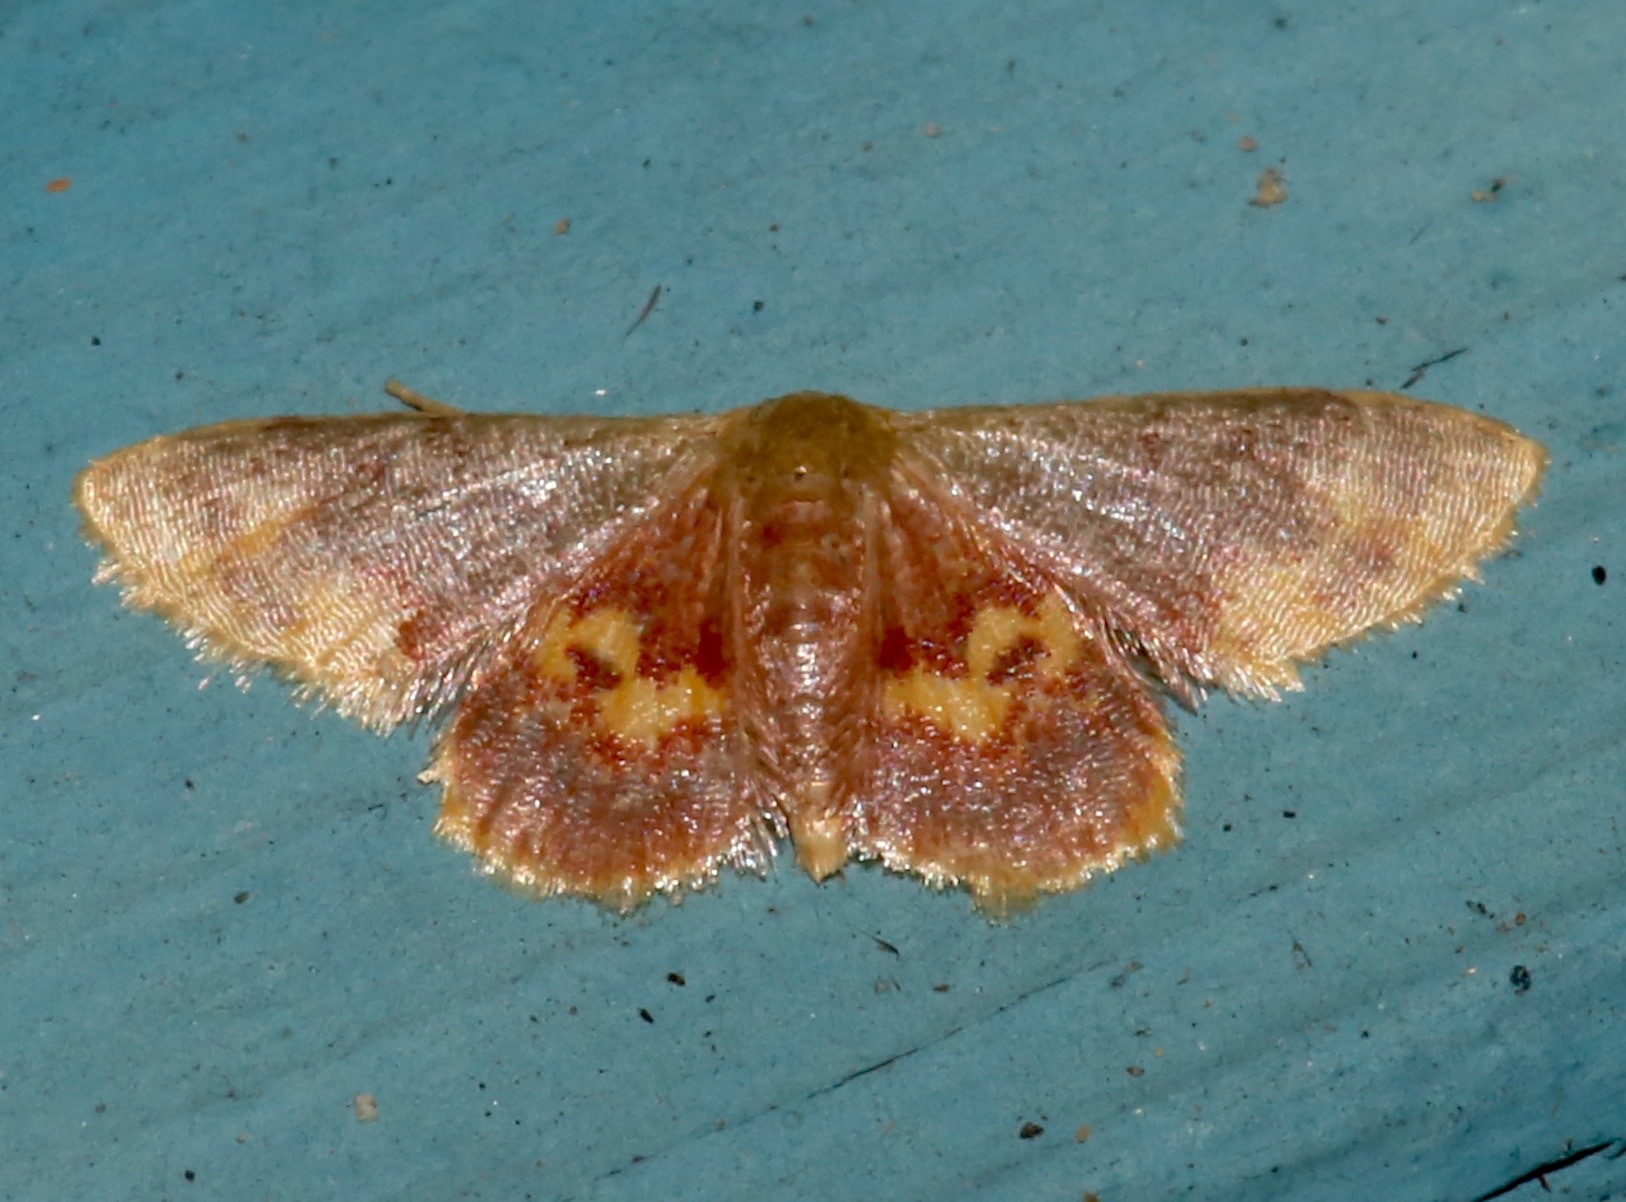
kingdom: Animalia
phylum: Arthropoda
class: Insecta
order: Lepidoptera
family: Geometridae
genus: Idaea
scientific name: Idaea scintillularia
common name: Diminutive wave
